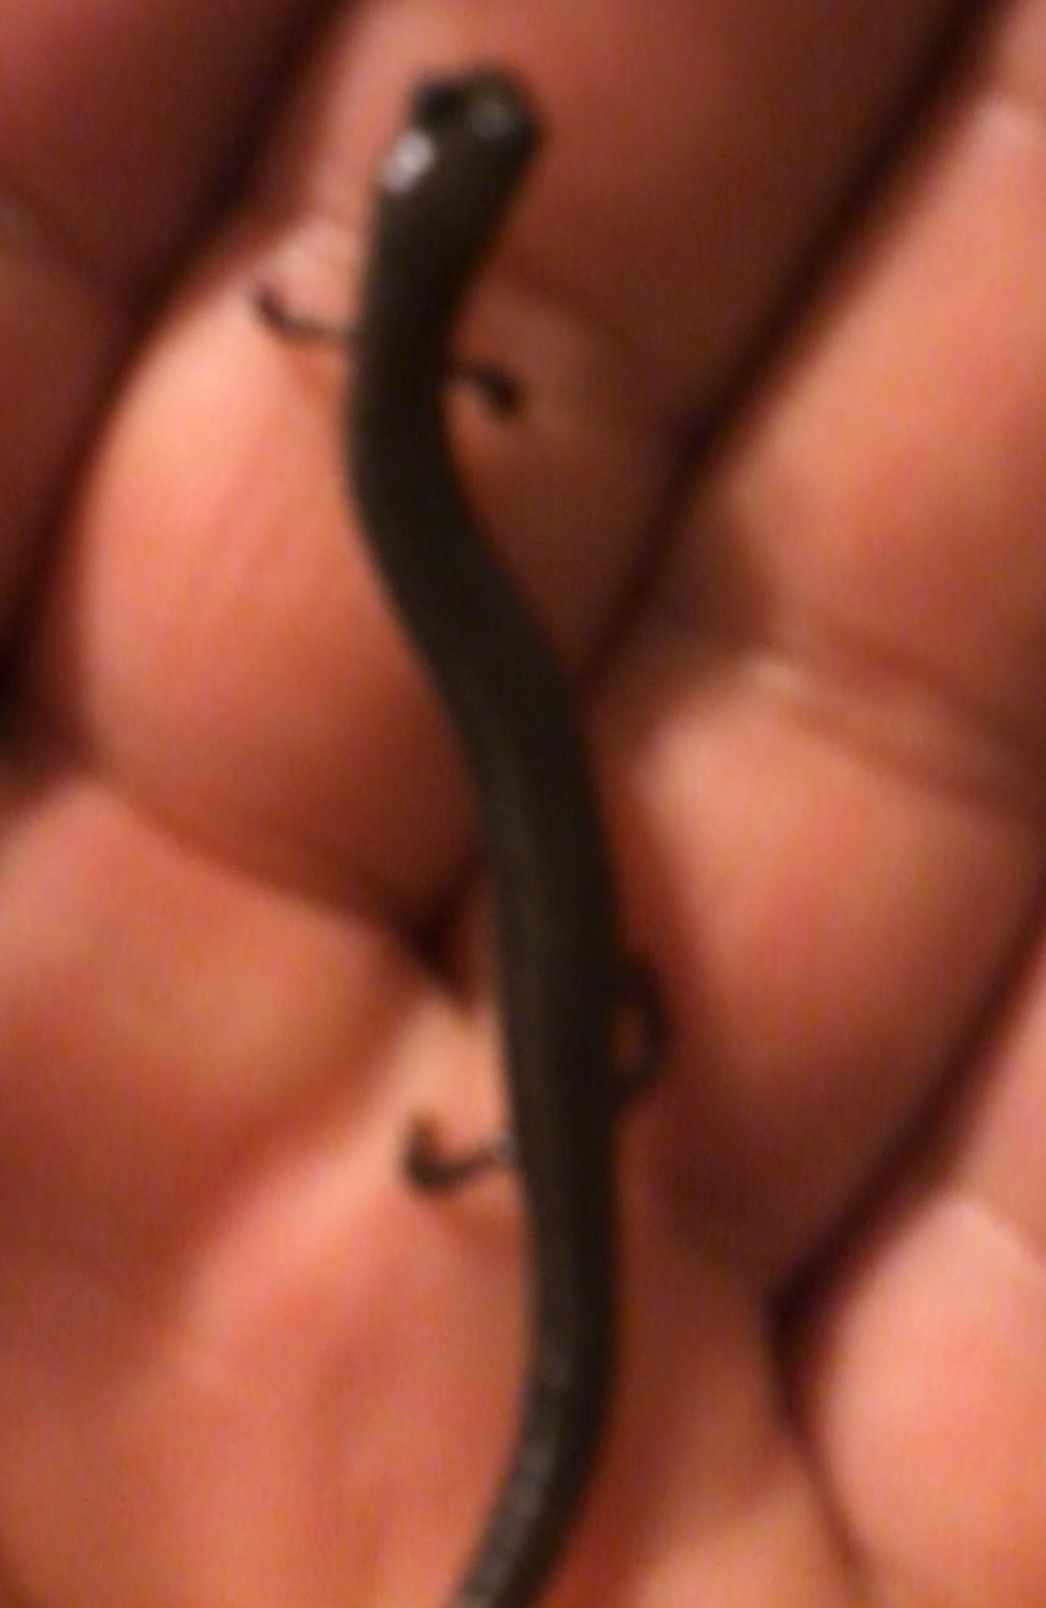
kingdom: Animalia
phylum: Chordata
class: Amphibia
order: Caudata
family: Plethodontidae
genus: Batrachoseps
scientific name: Batrachoseps attenuatus
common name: California slender salamander
